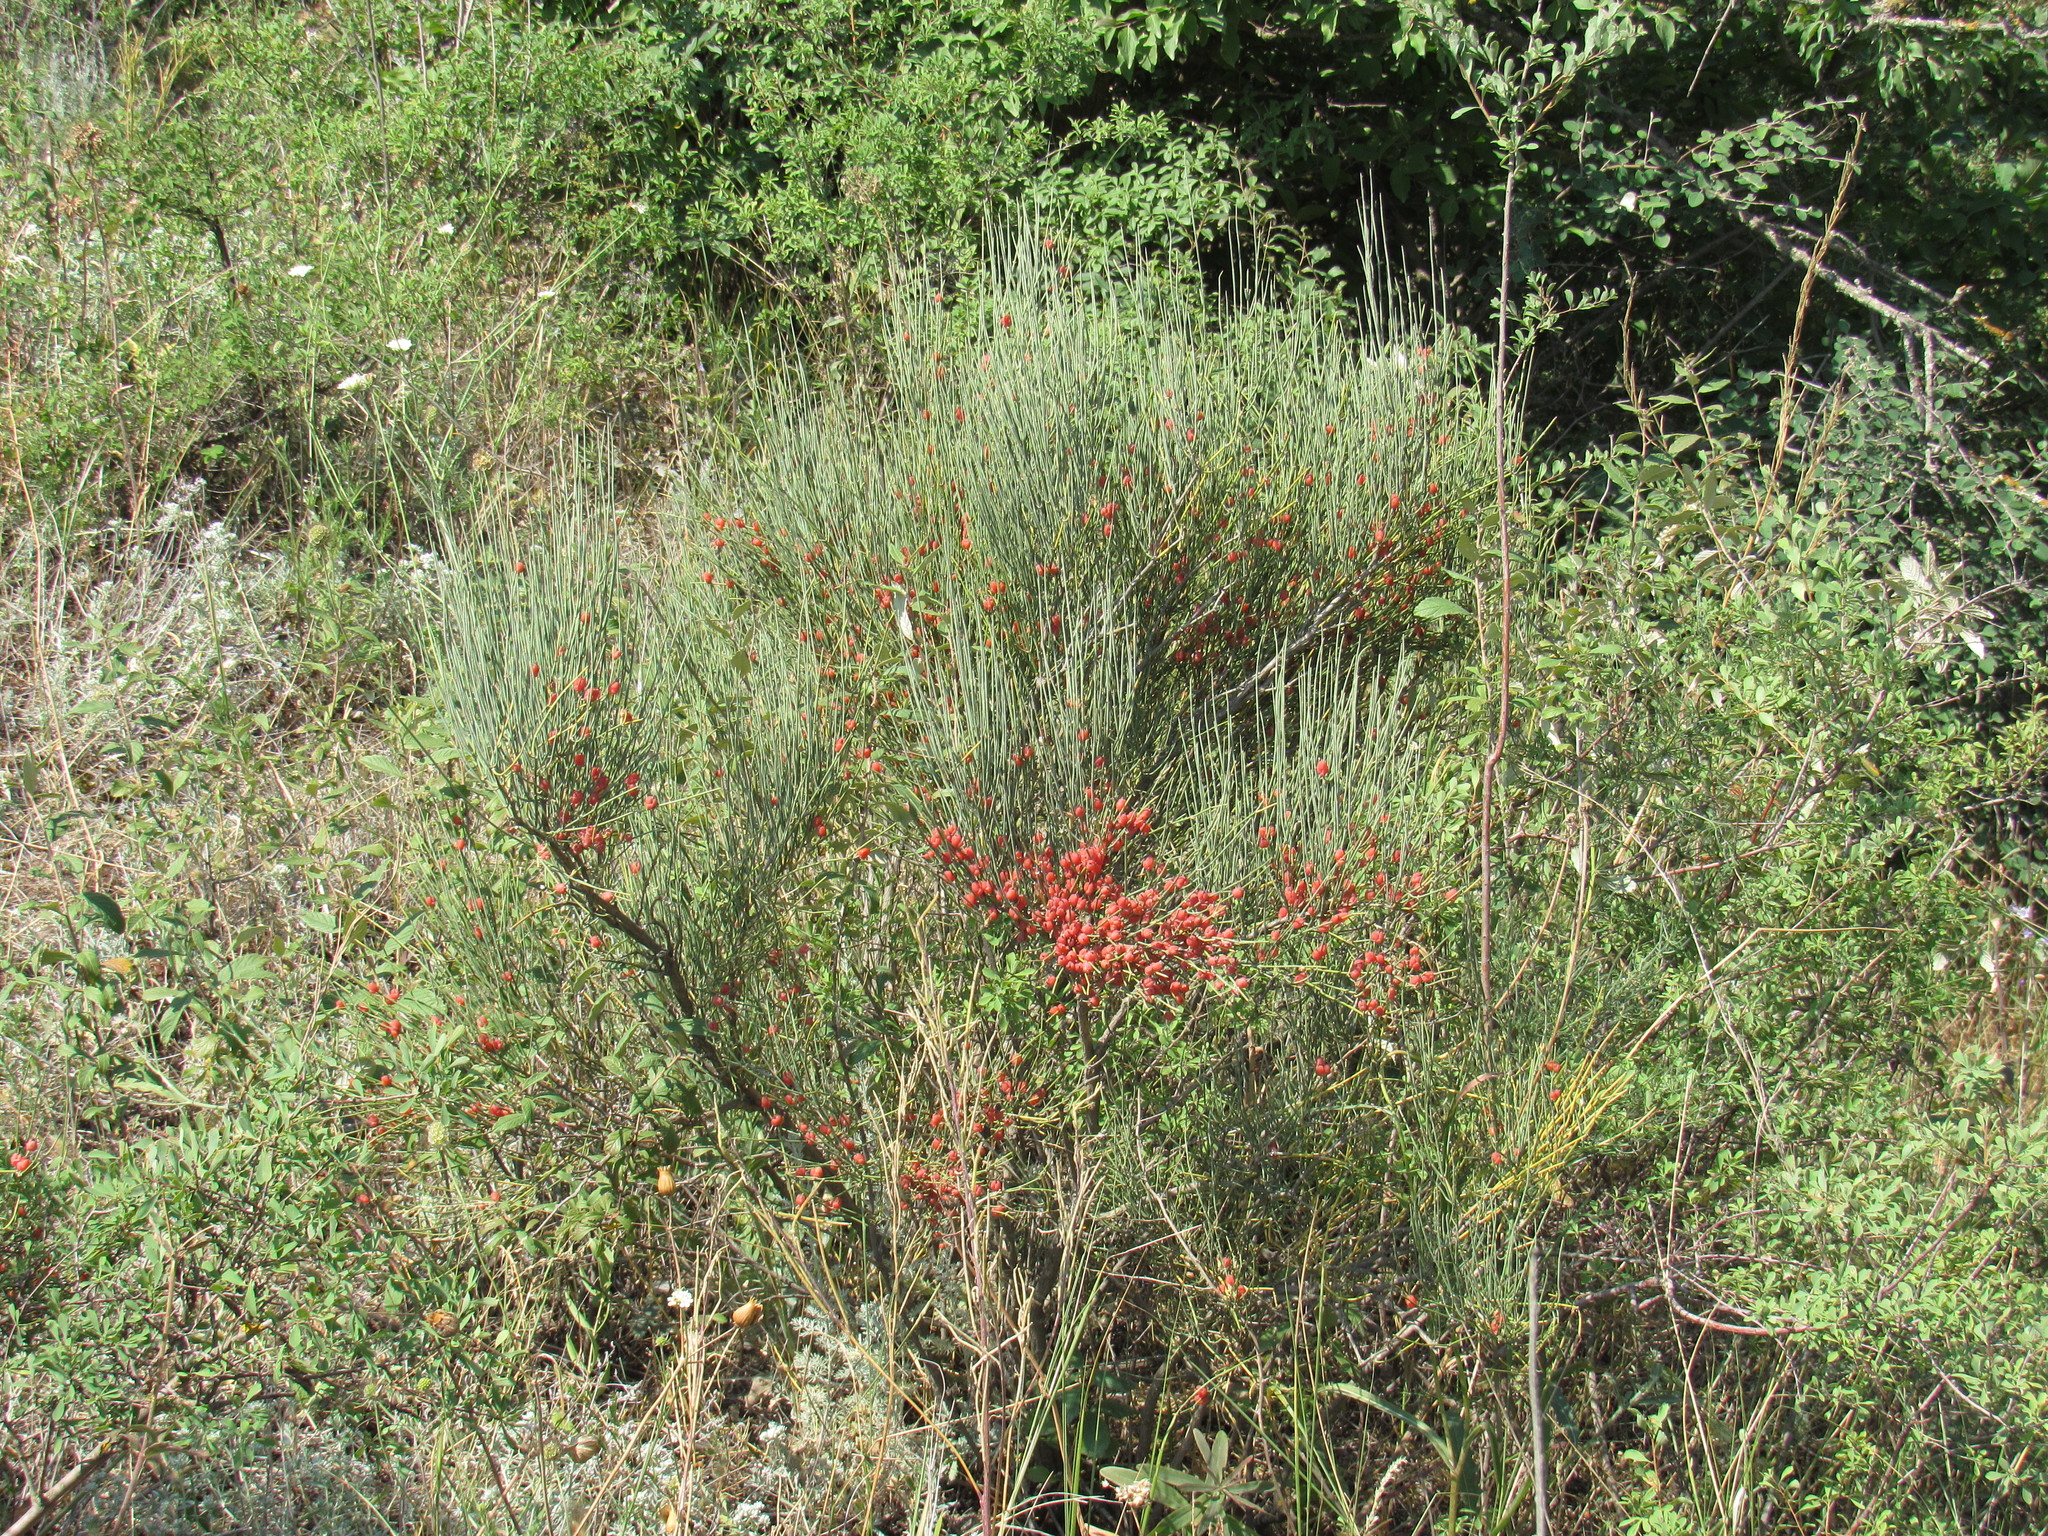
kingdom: Plantae
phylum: Tracheophyta
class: Gnetopsida
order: Ephedrales
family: Ephedraceae
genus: Ephedra
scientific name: Ephedra procera
